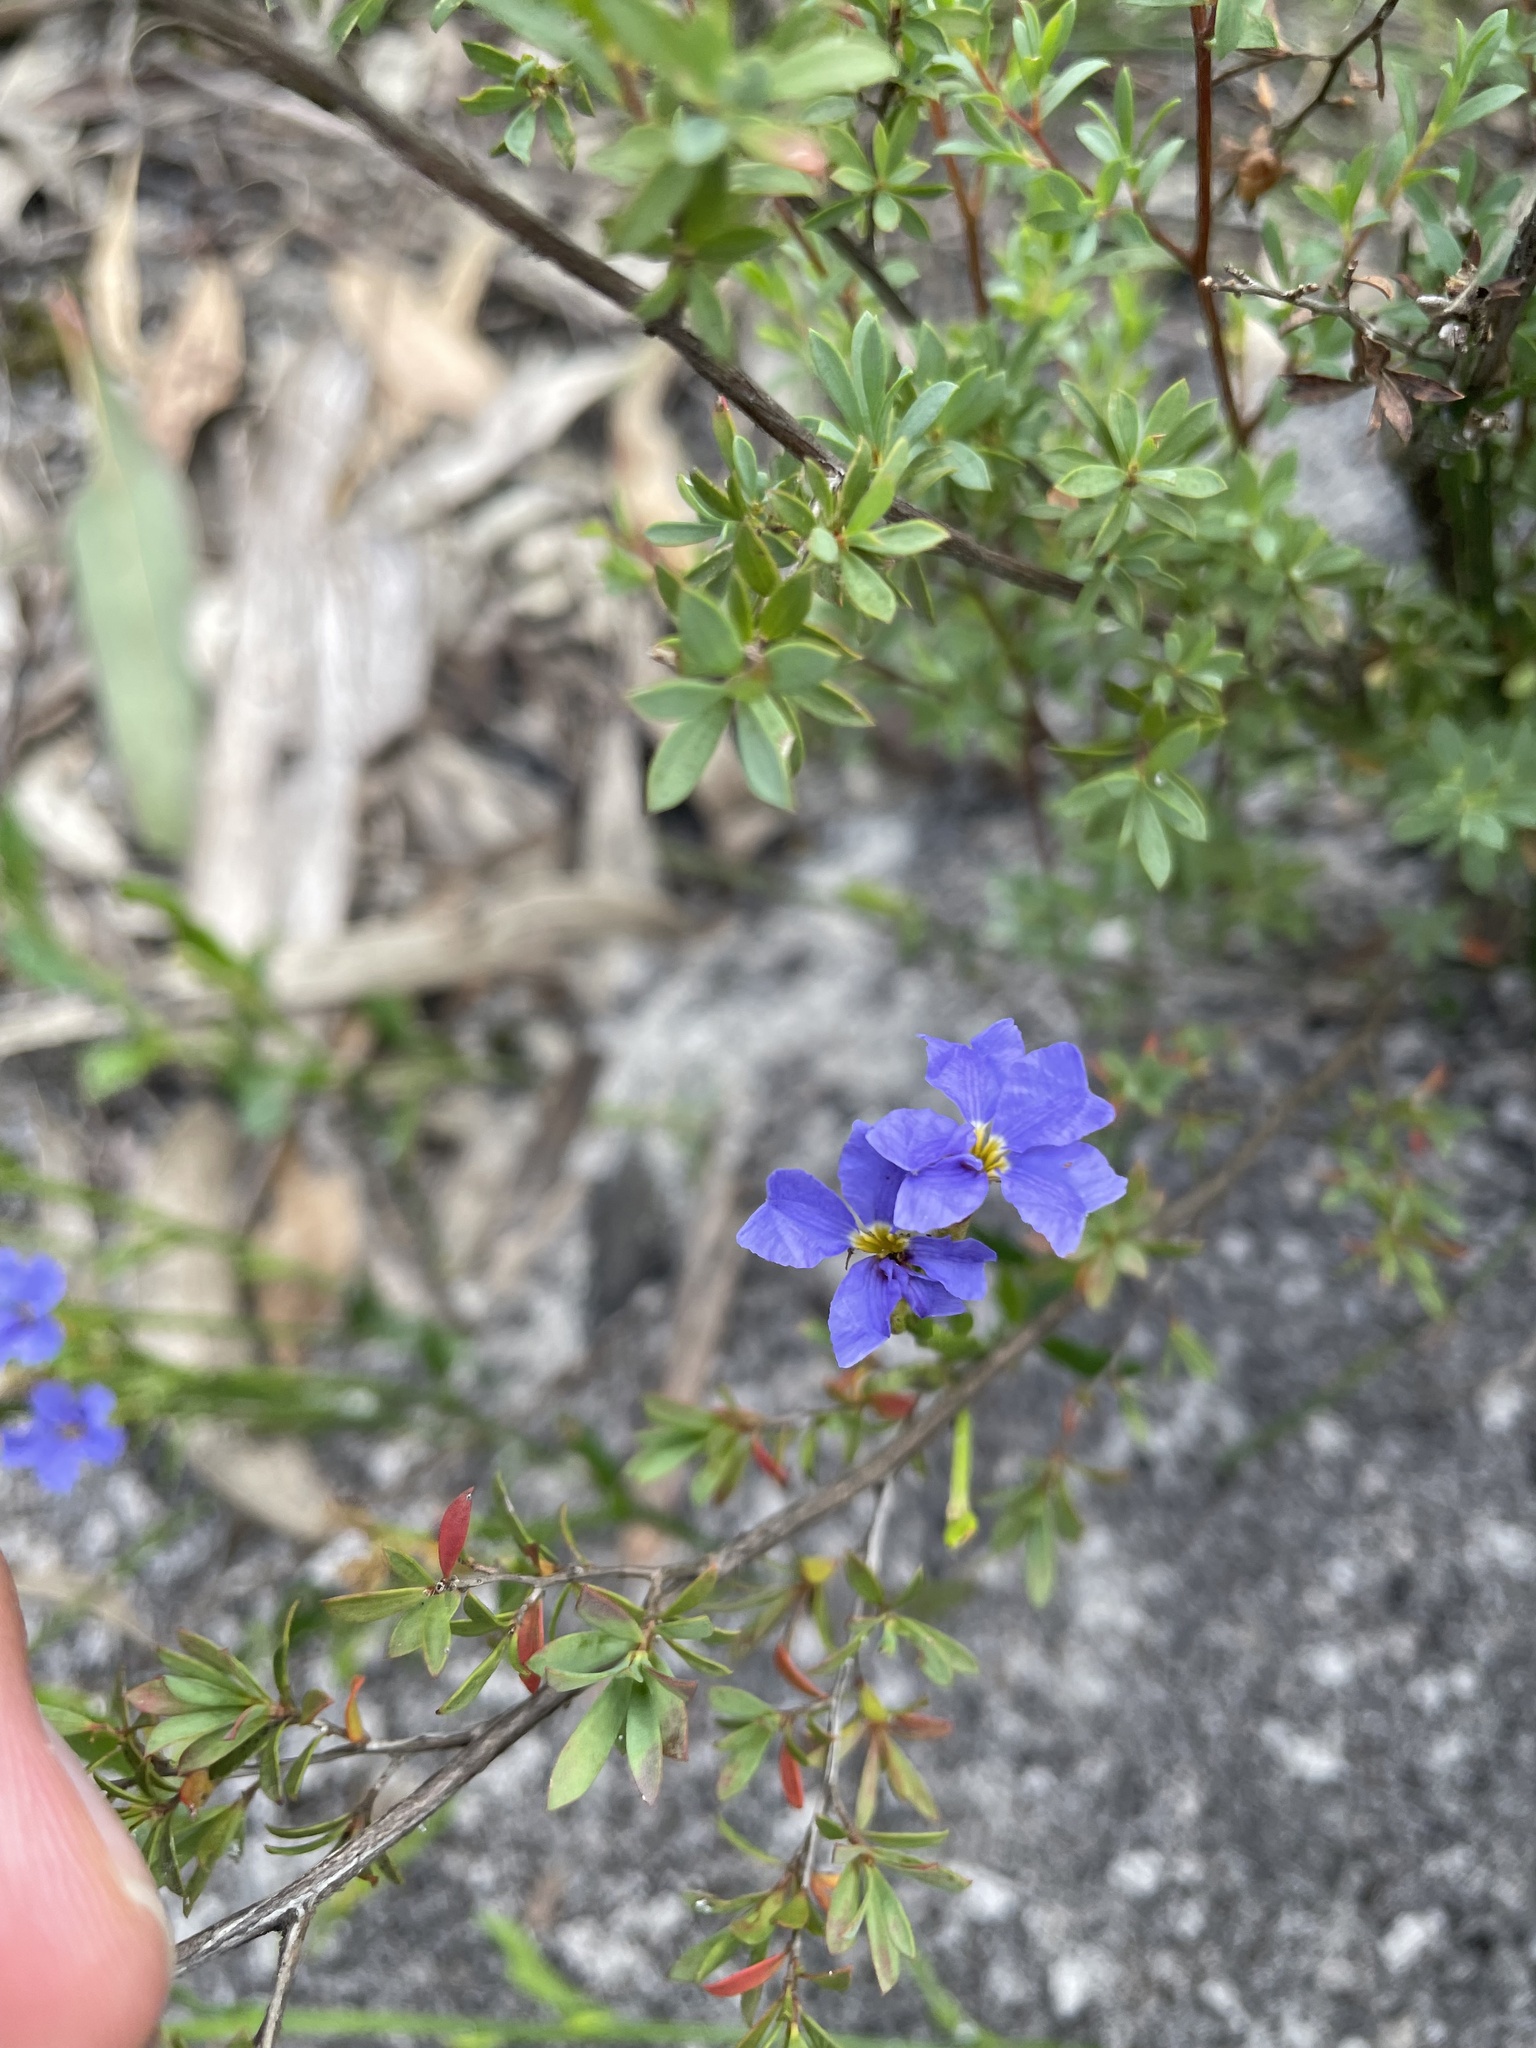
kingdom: Plantae
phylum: Tracheophyta
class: Magnoliopsida
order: Asterales
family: Goodeniaceae
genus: Dampiera
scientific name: Dampiera stricta
